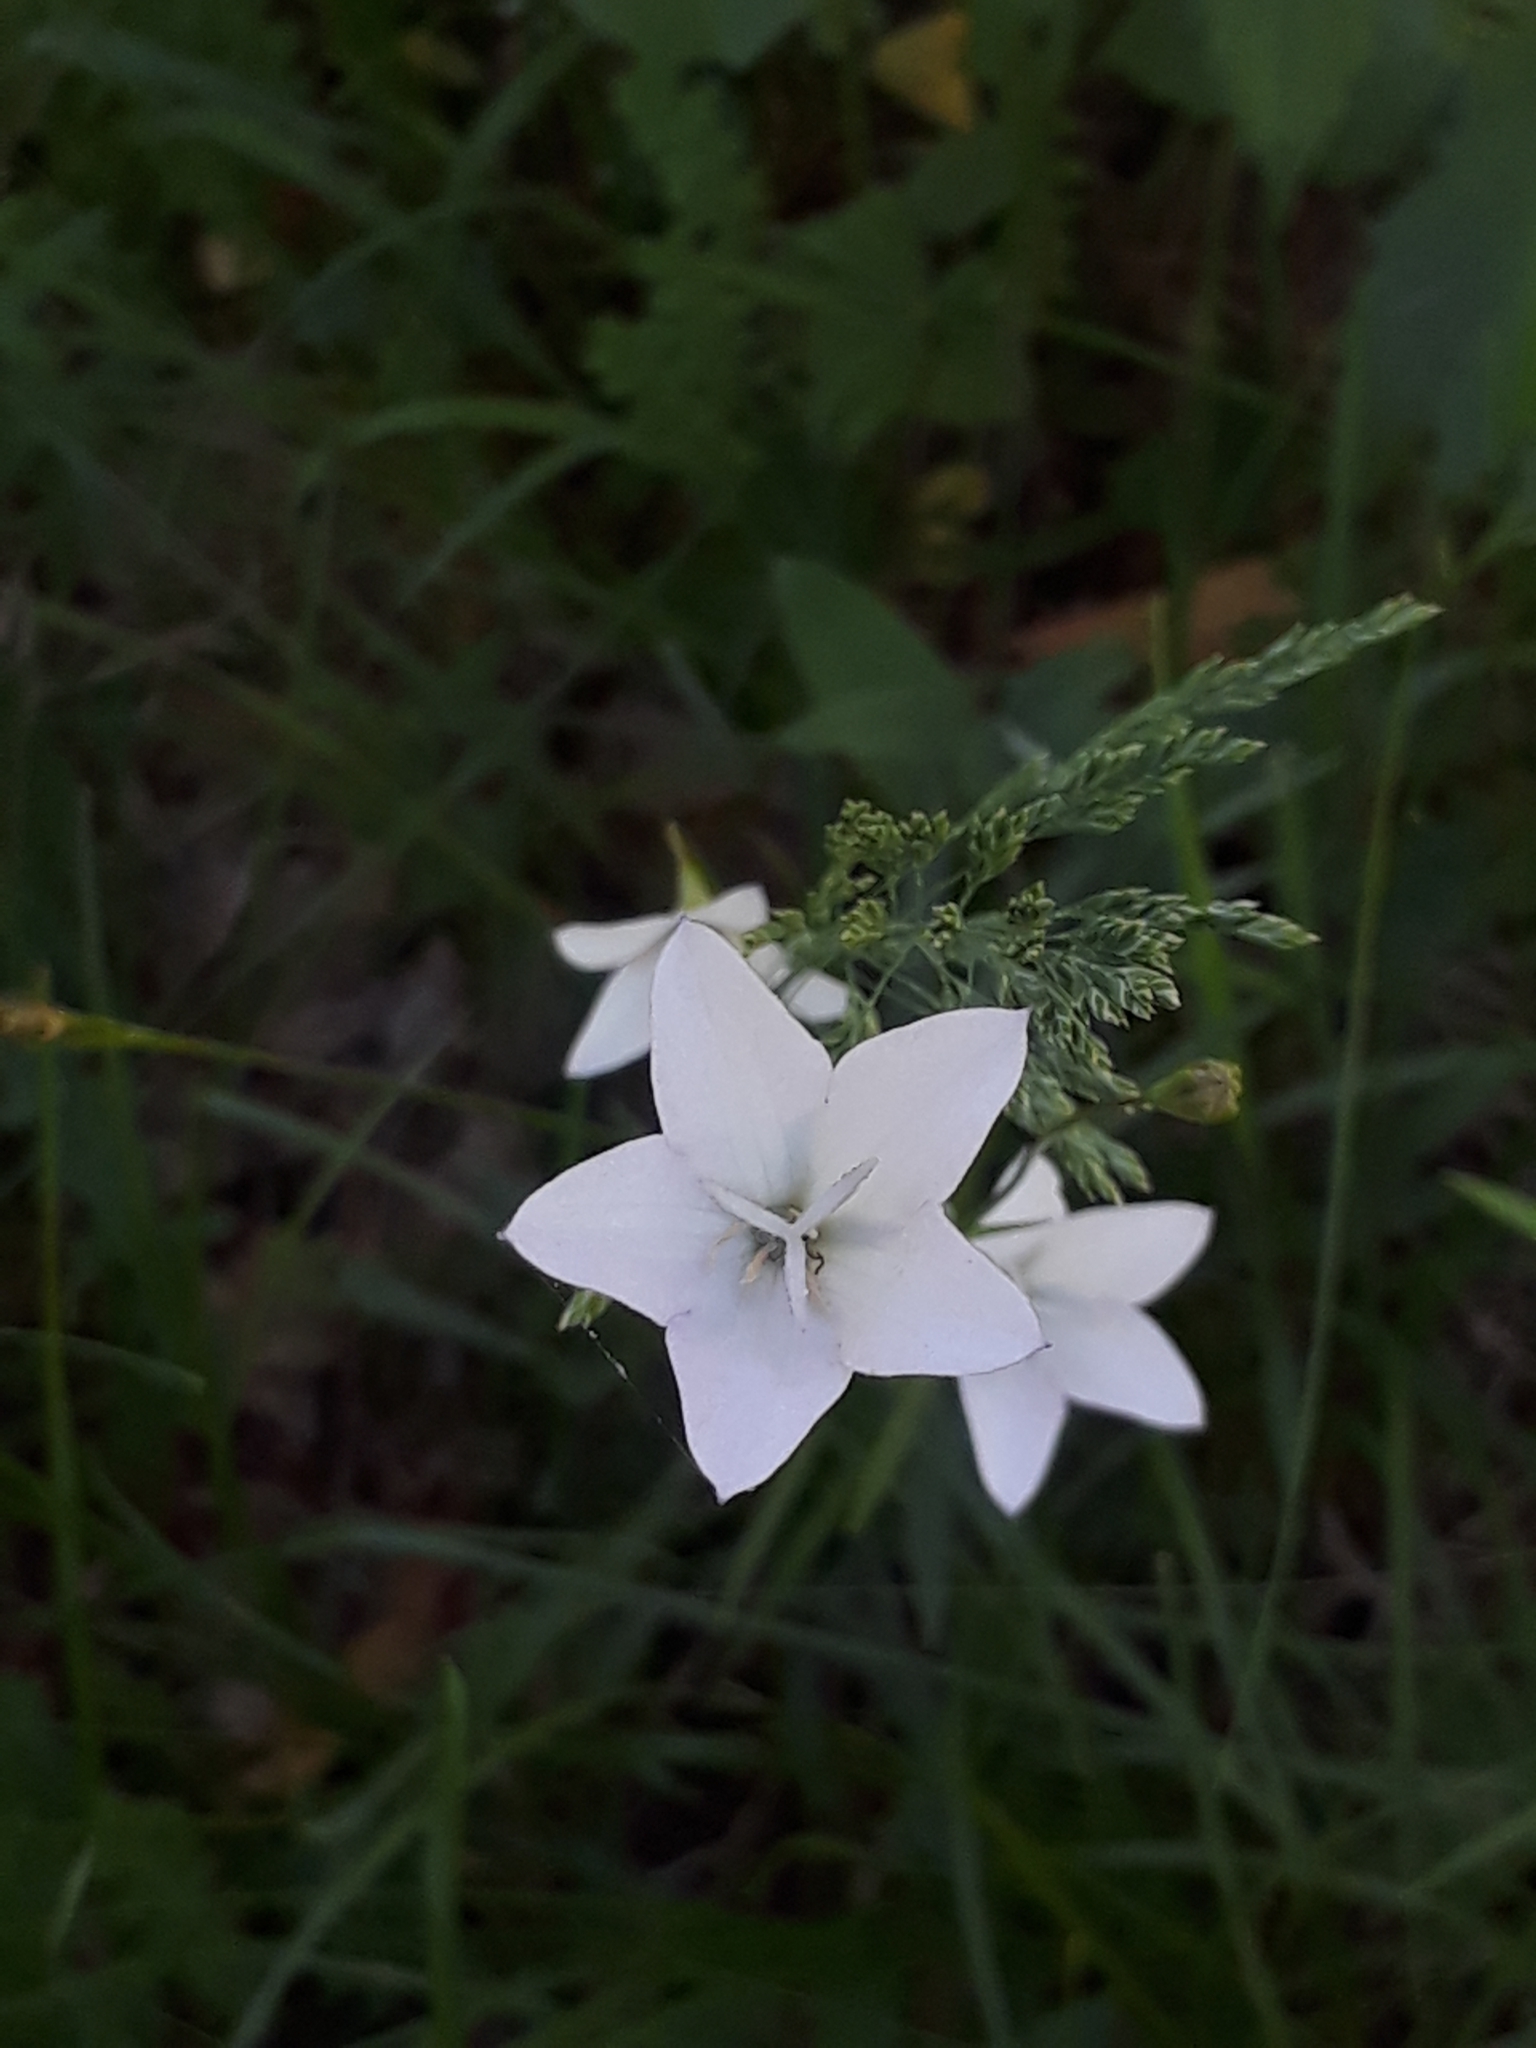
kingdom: Plantae
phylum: Tracheophyta
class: Magnoliopsida
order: Asterales
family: Campanulaceae
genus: Campanula
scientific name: Campanula stevenii
